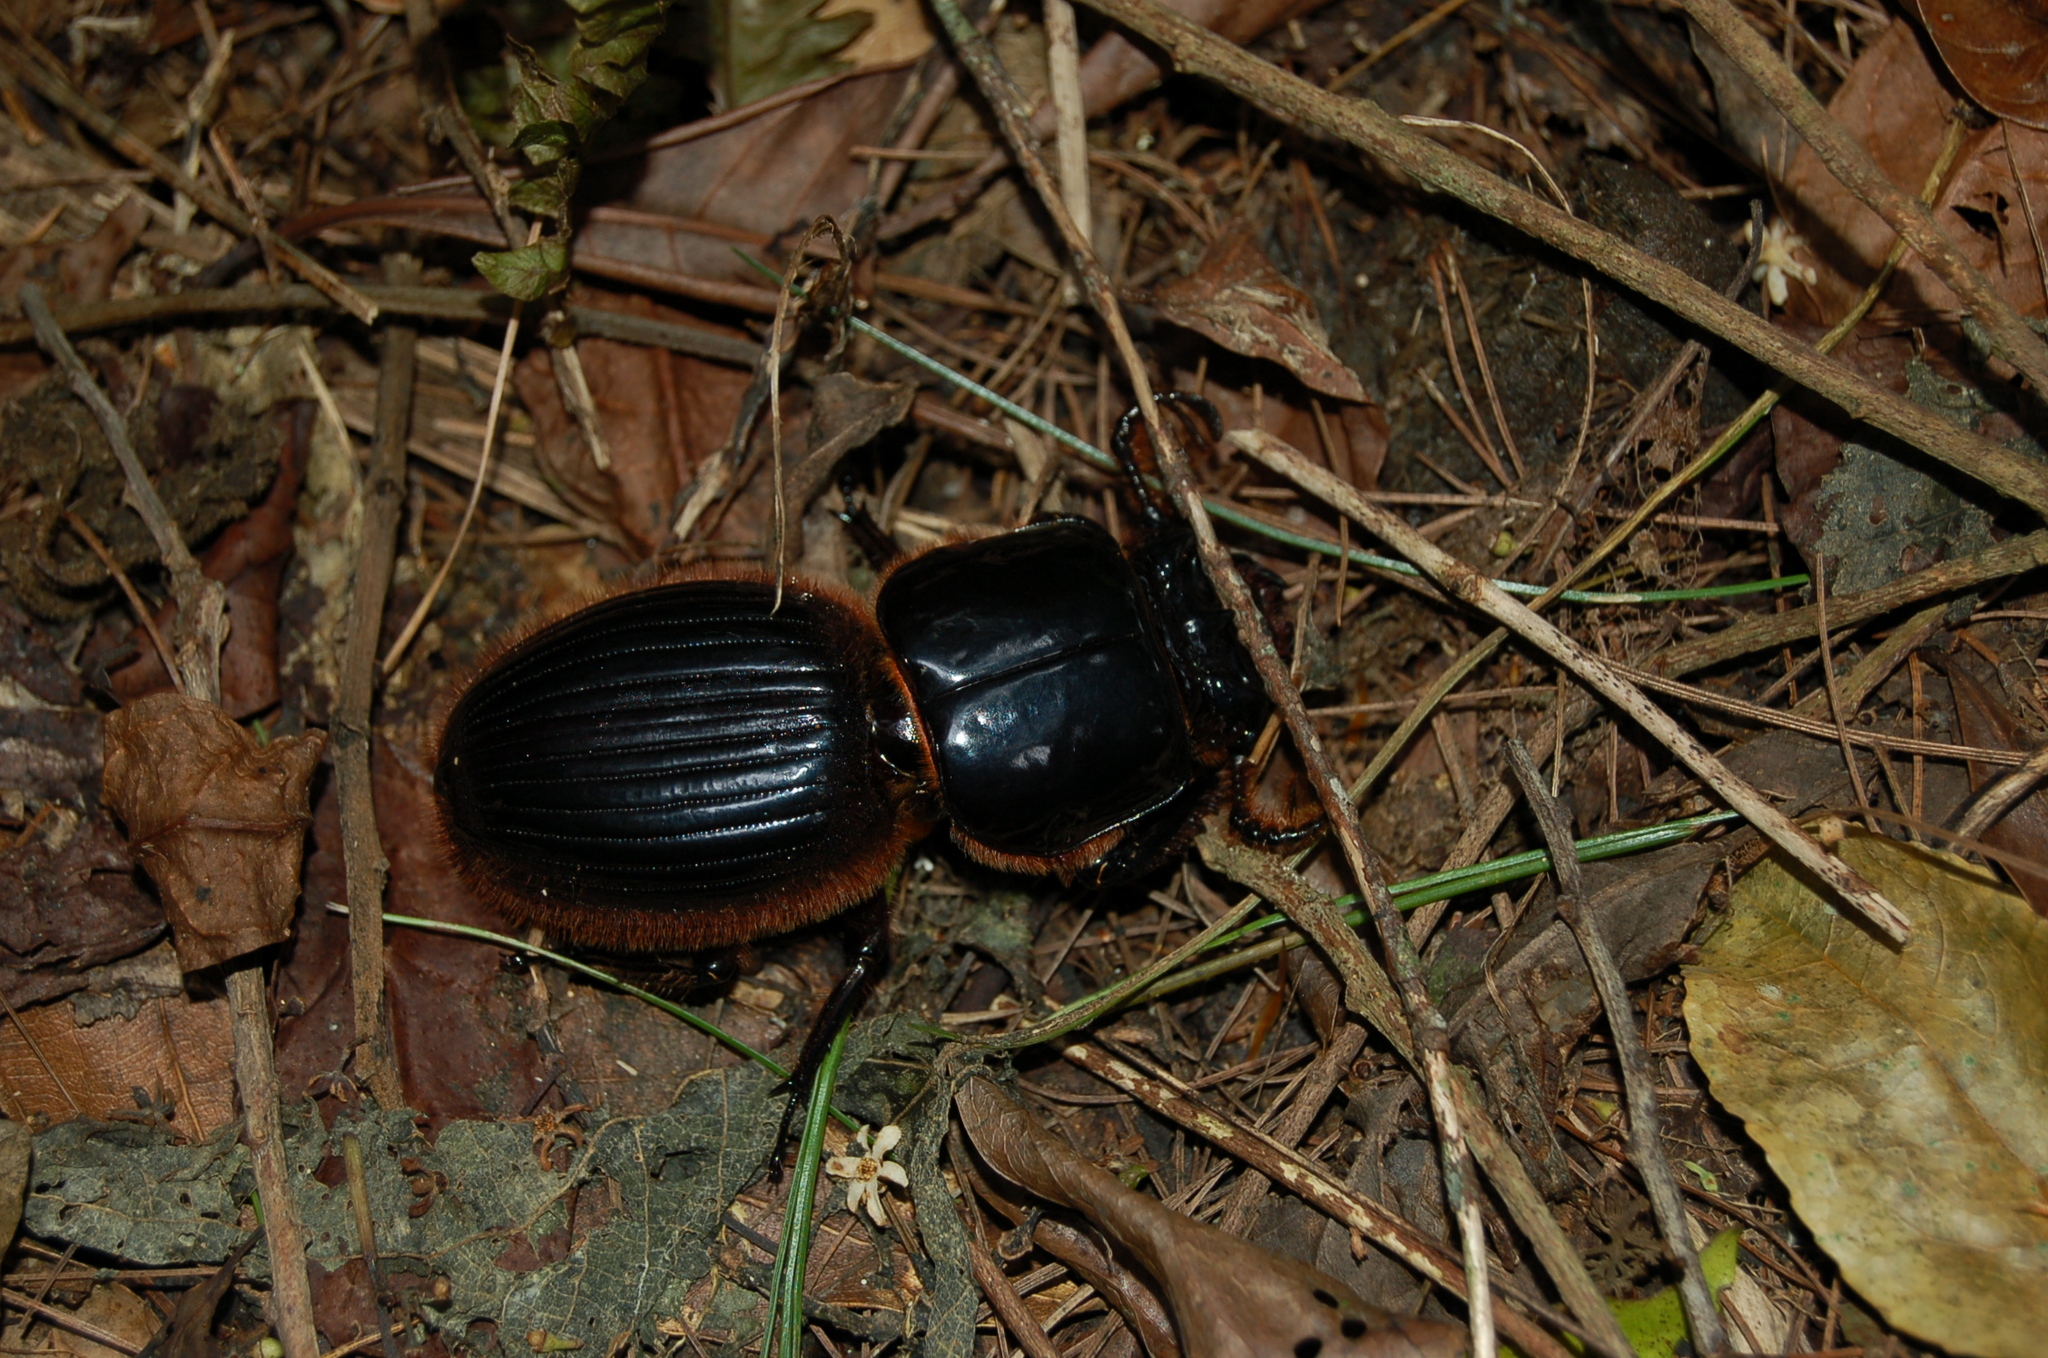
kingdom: Animalia
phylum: Arthropoda
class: Insecta
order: Coleoptera
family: Passalidae
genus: Proculus
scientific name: Proculus goryi
